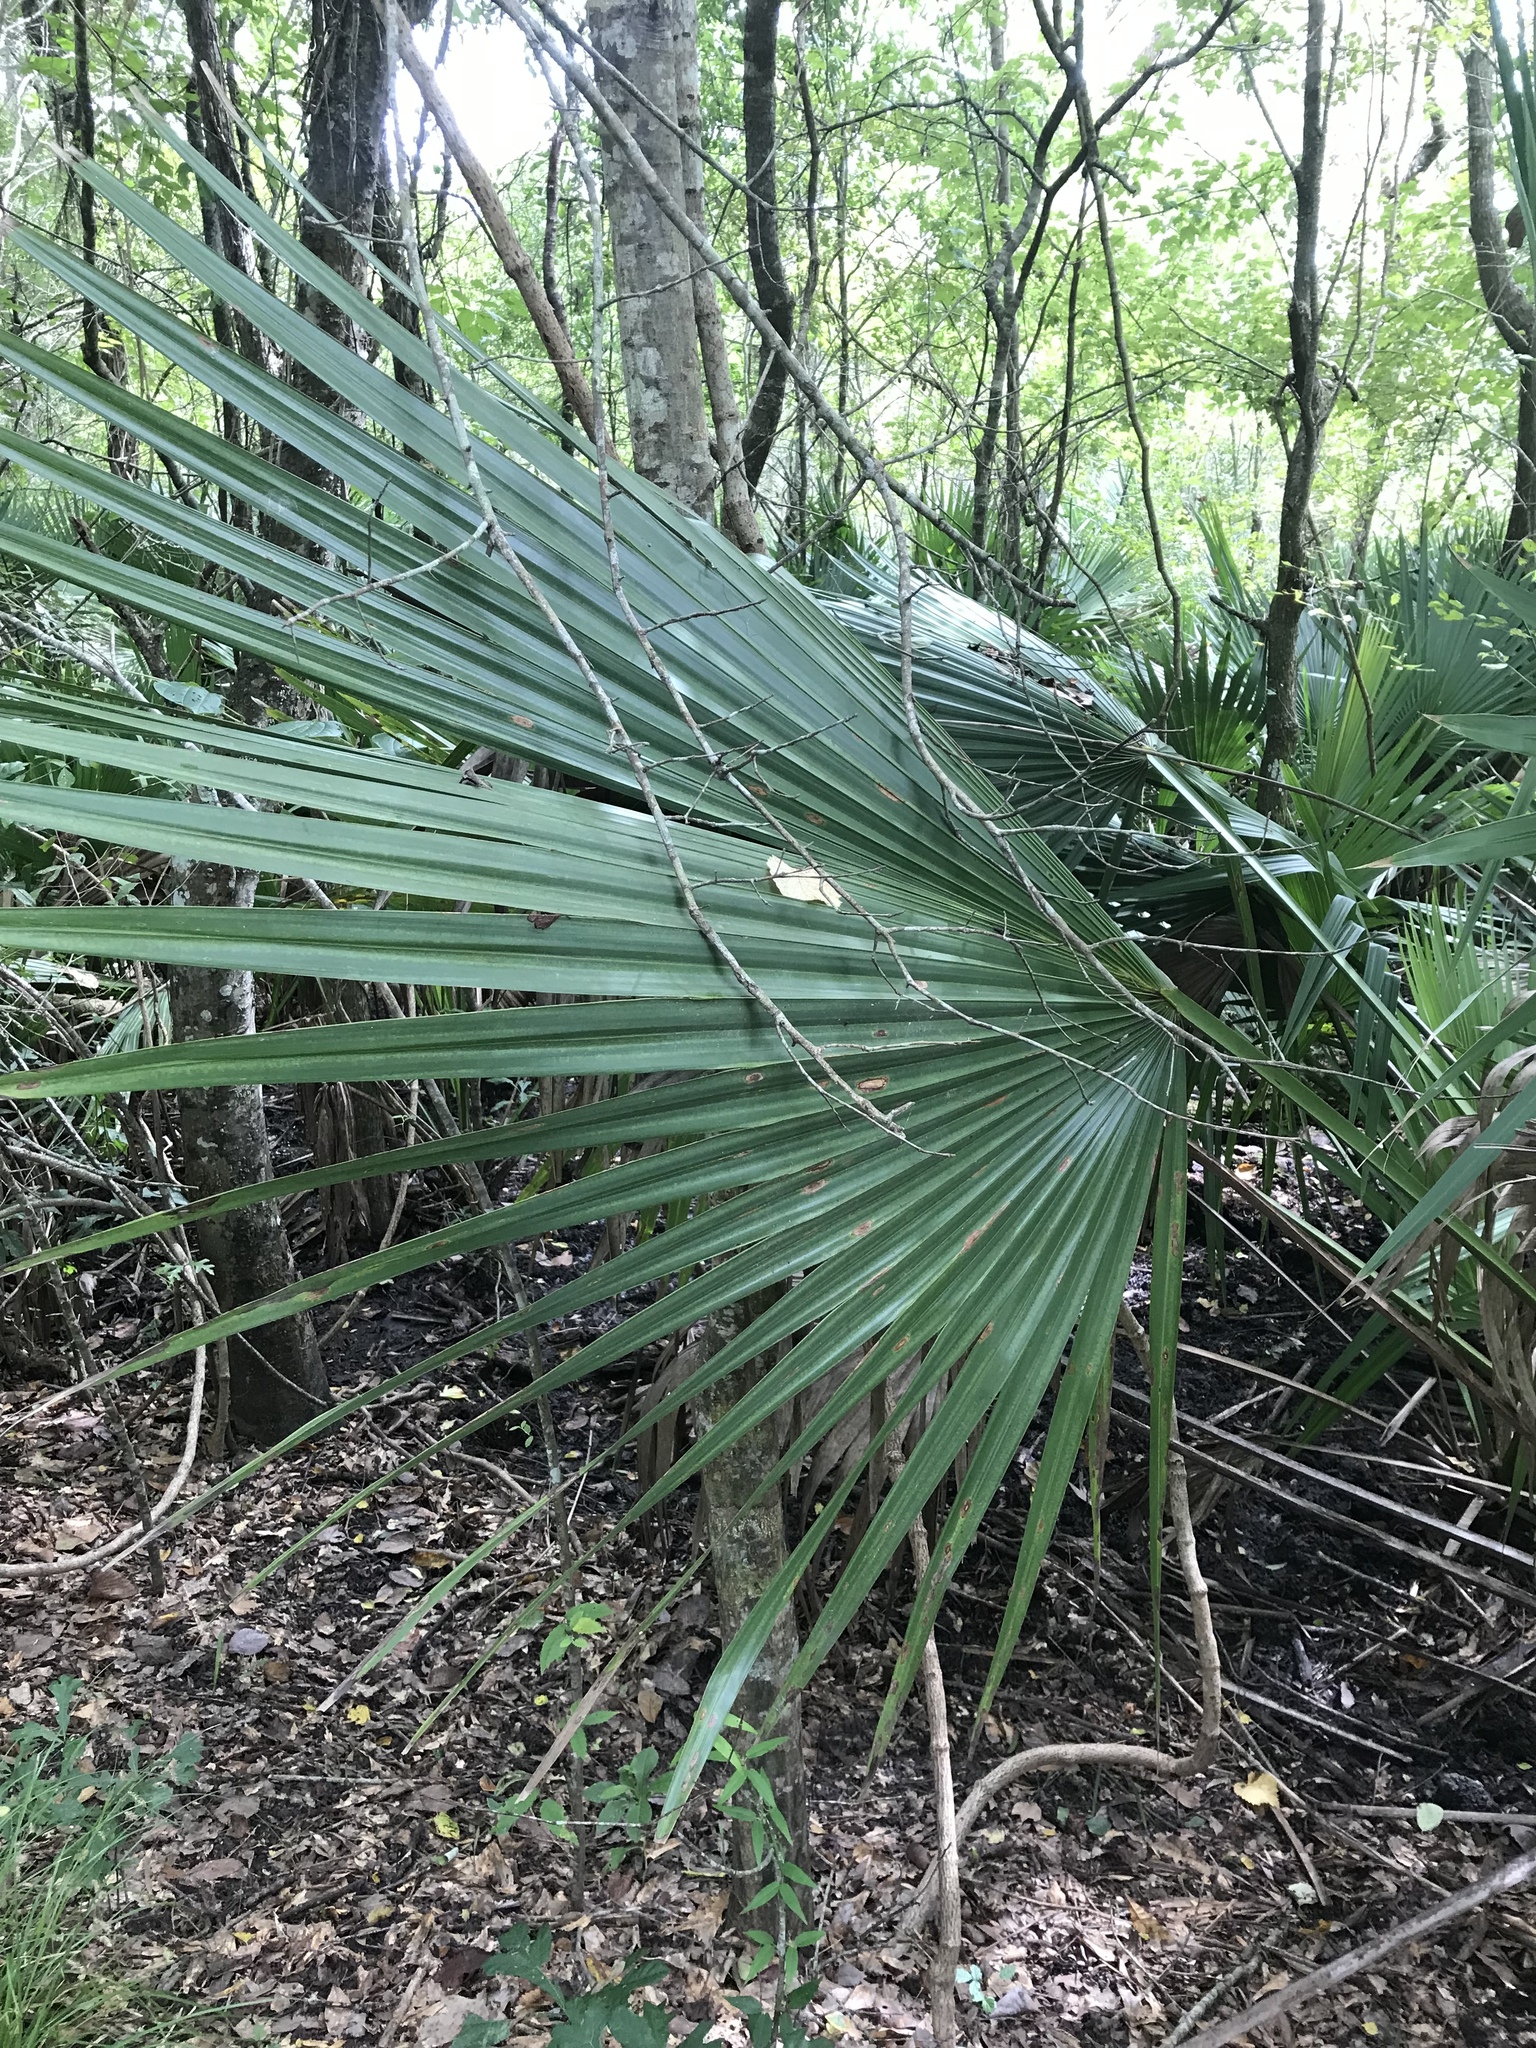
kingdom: Plantae
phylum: Tracheophyta
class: Liliopsida
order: Arecales
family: Arecaceae
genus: Sabal
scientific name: Sabal minor
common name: Dwarf palmetto
